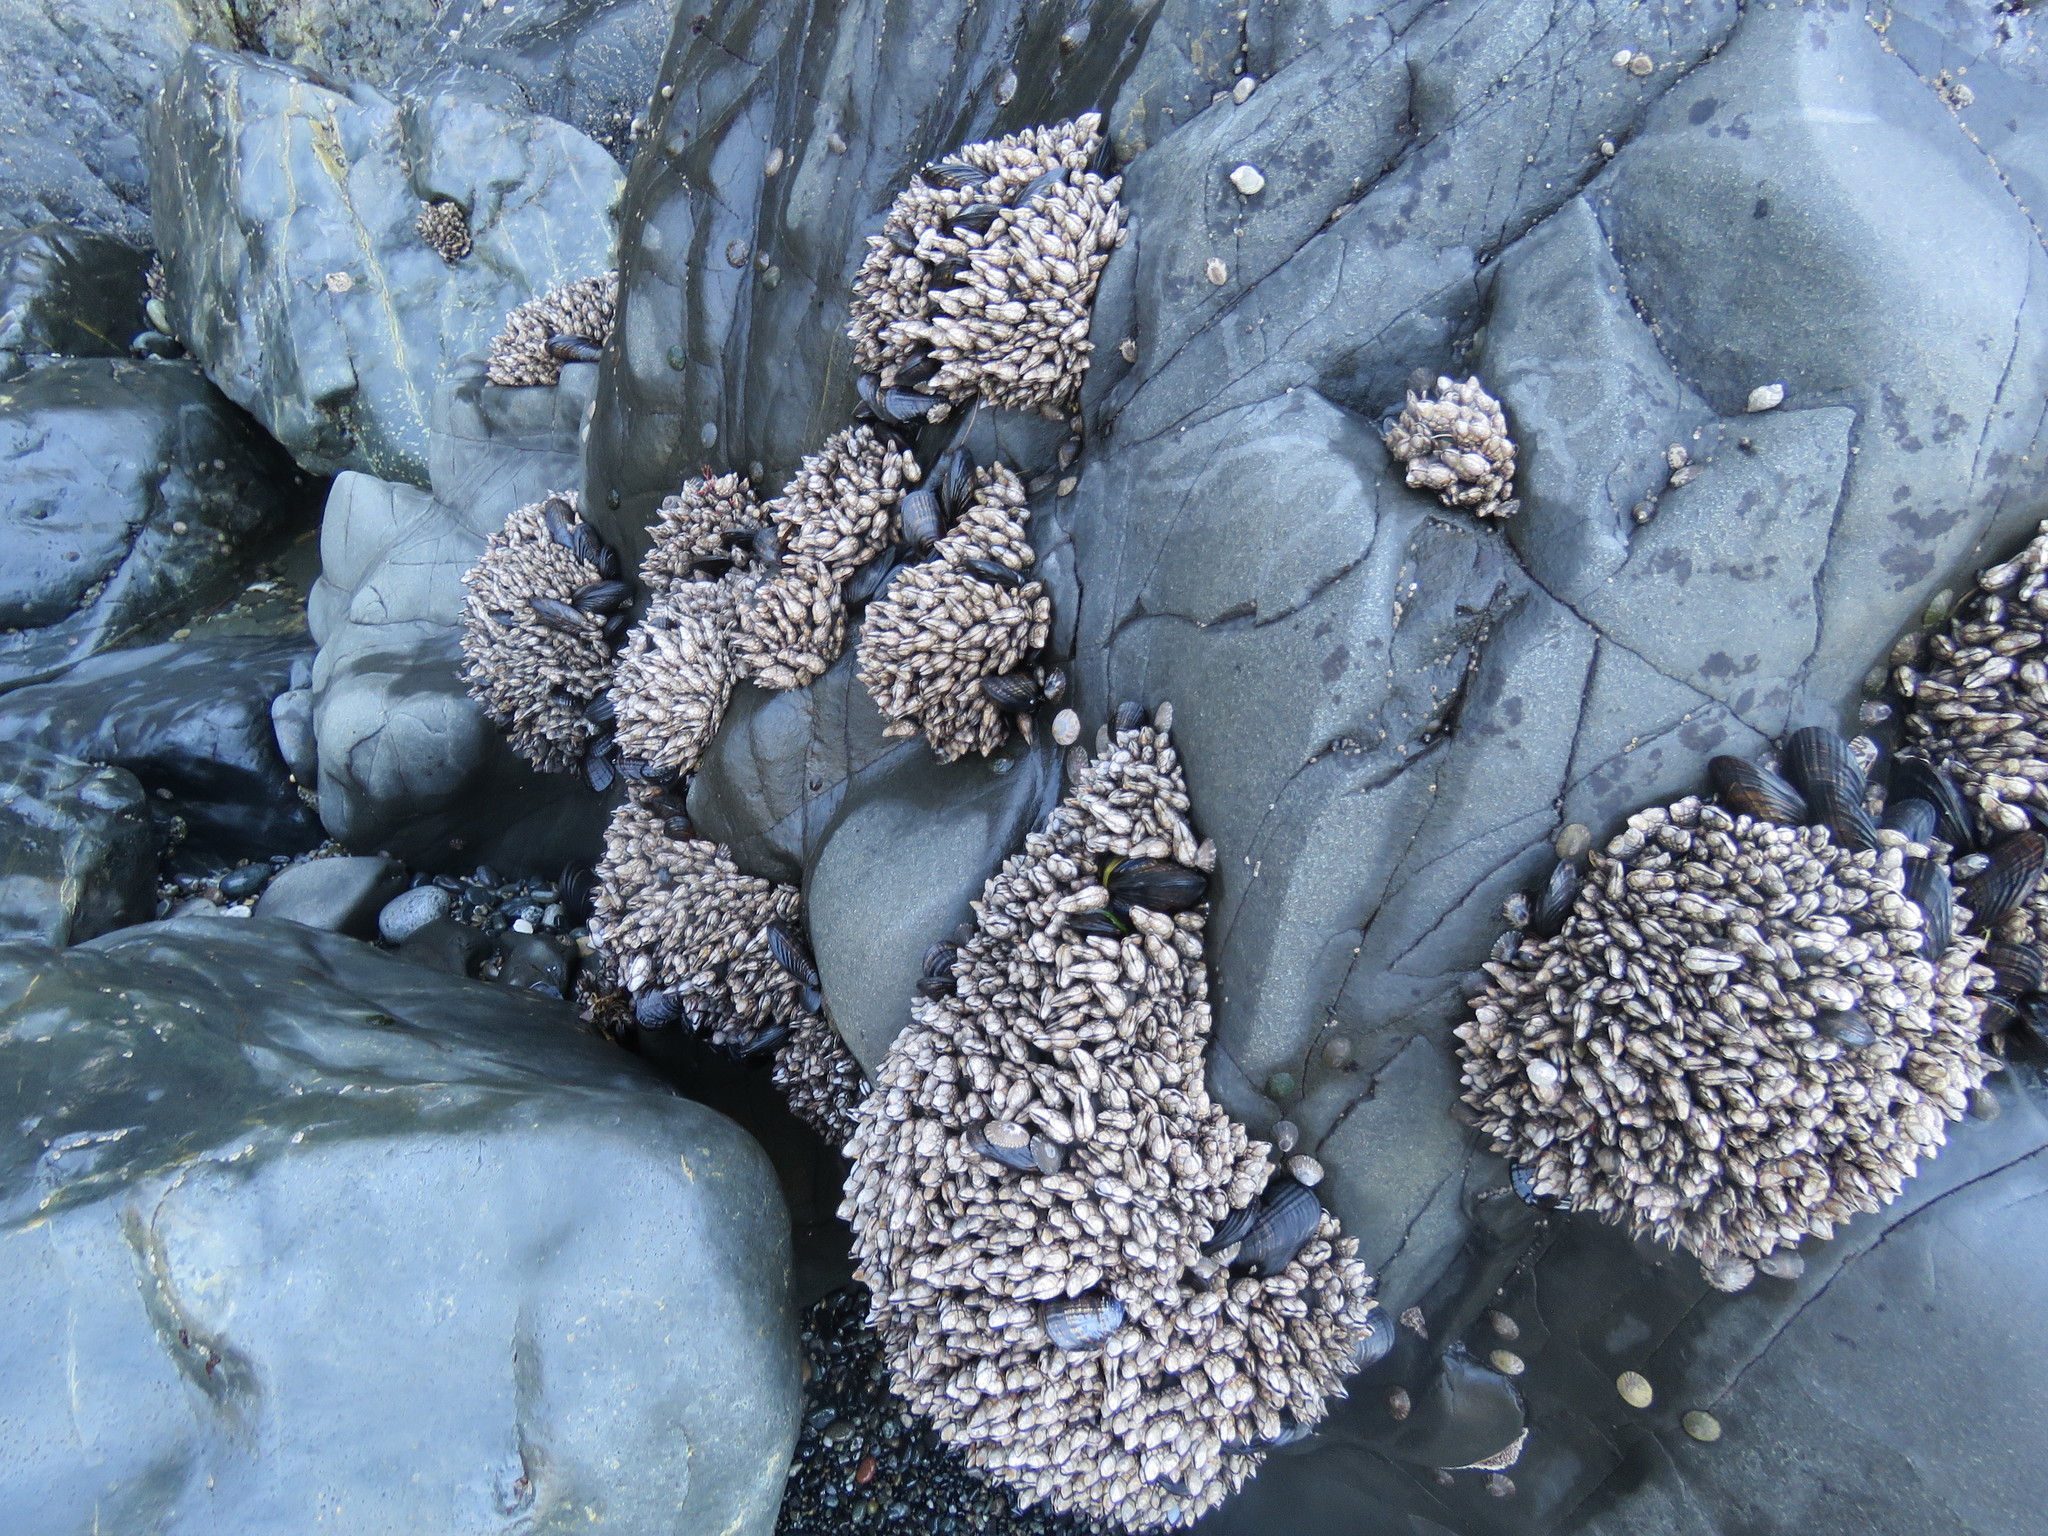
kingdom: Animalia
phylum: Arthropoda
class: Maxillopoda
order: Pedunculata
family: Pollicipedidae
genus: Pollicipes
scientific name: Pollicipes polymerus
